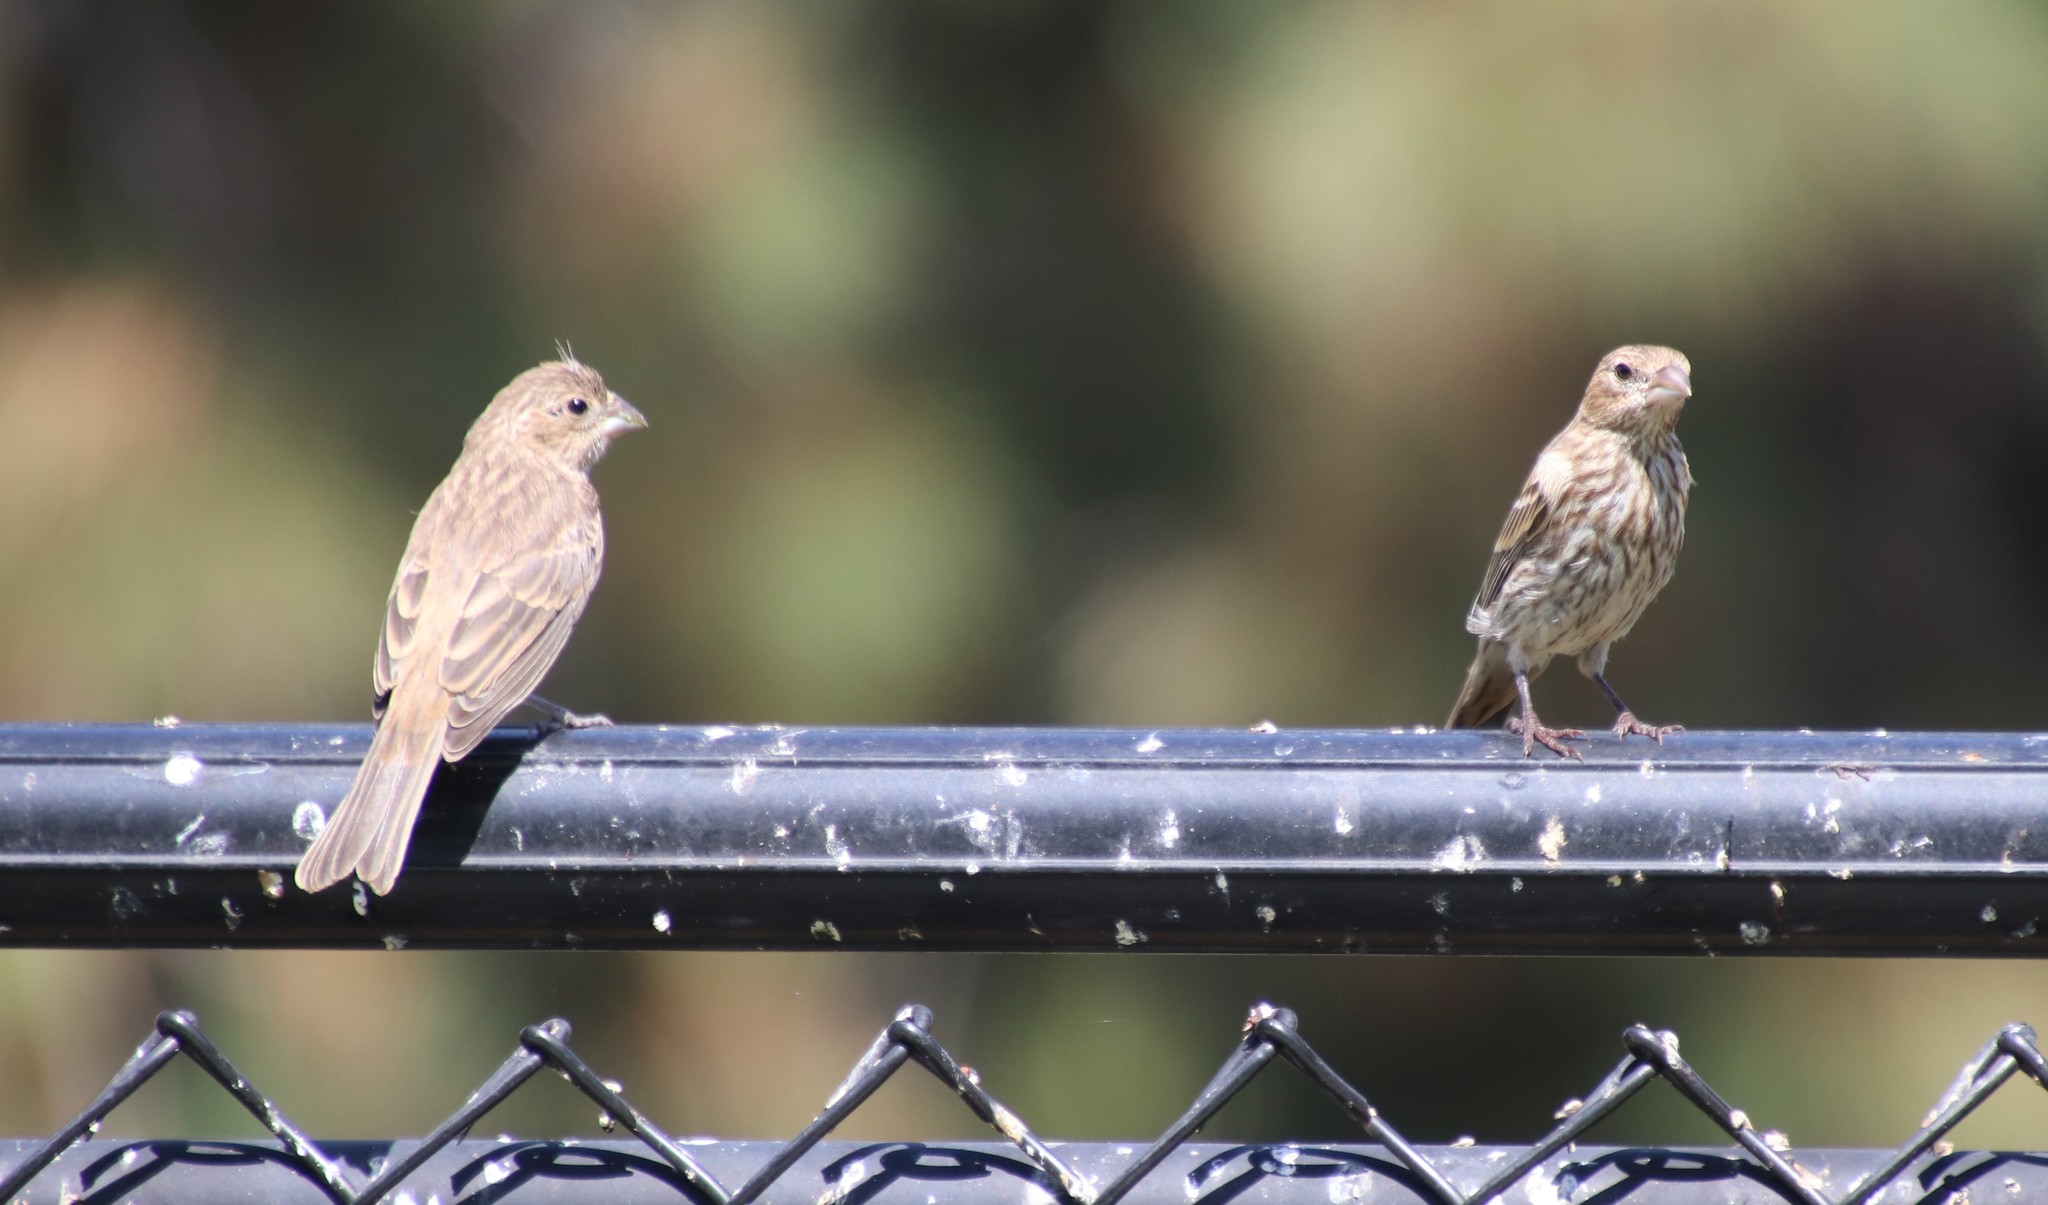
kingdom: Animalia
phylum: Chordata
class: Aves
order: Passeriformes
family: Fringillidae
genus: Haemorhous
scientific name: Haemorhous mexicanus
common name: House finch
